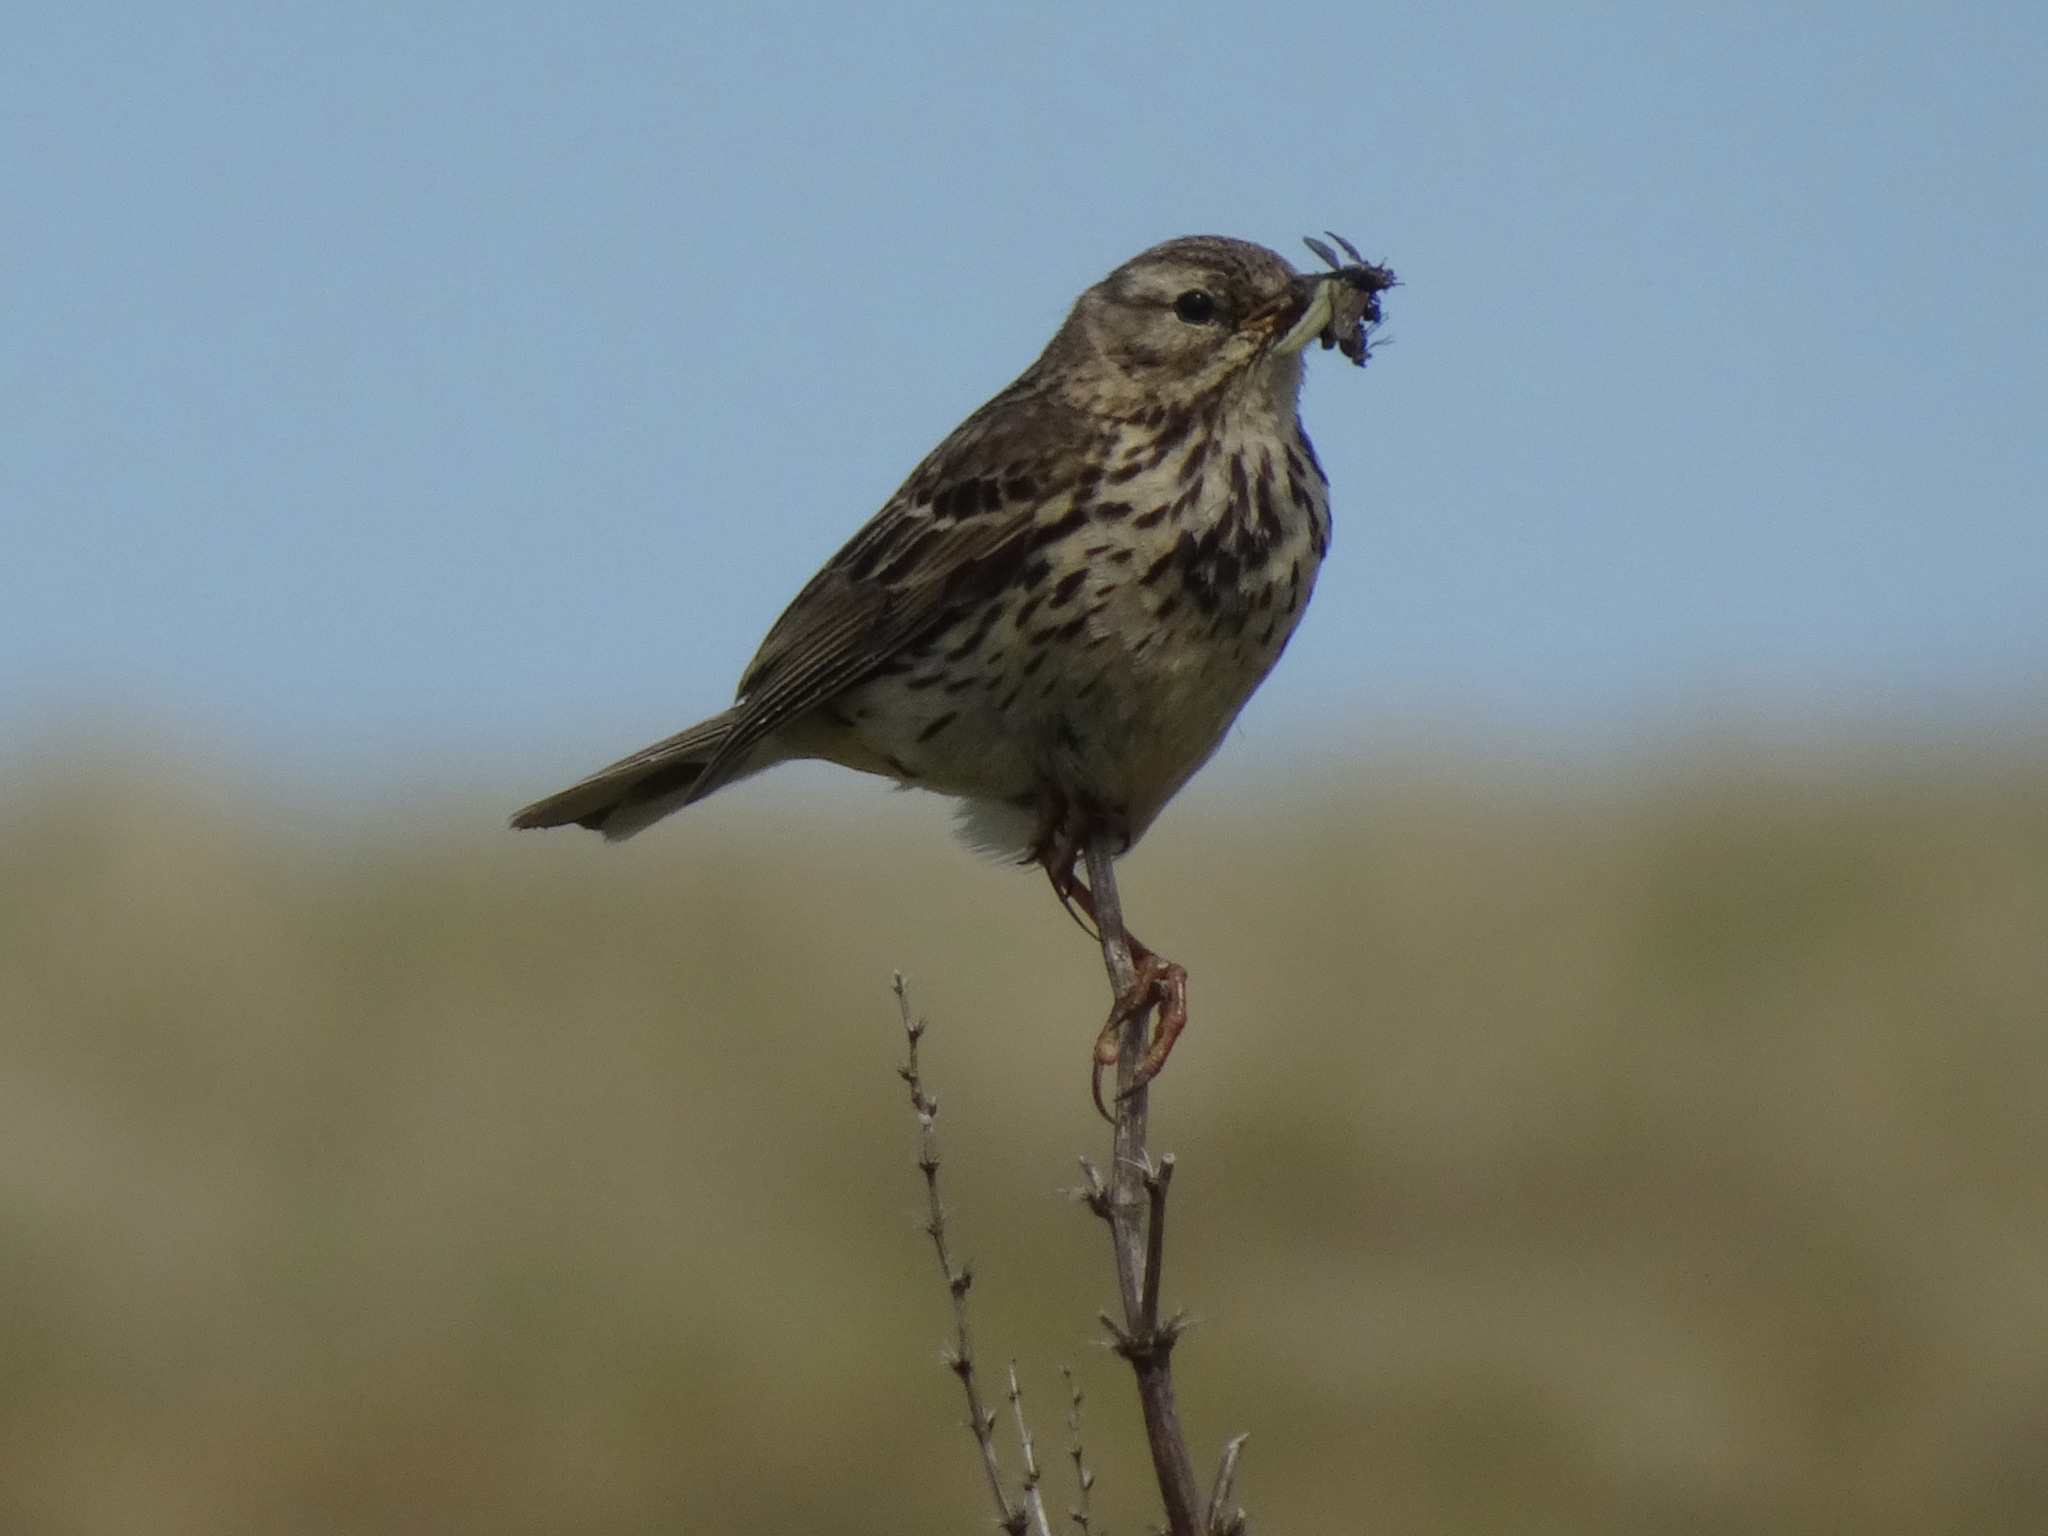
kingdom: Animalia
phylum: Chordata
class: Aves
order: Passeriformes
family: Motacillidae
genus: Anthus
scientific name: Anthus pratensis
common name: Meadow pipit
